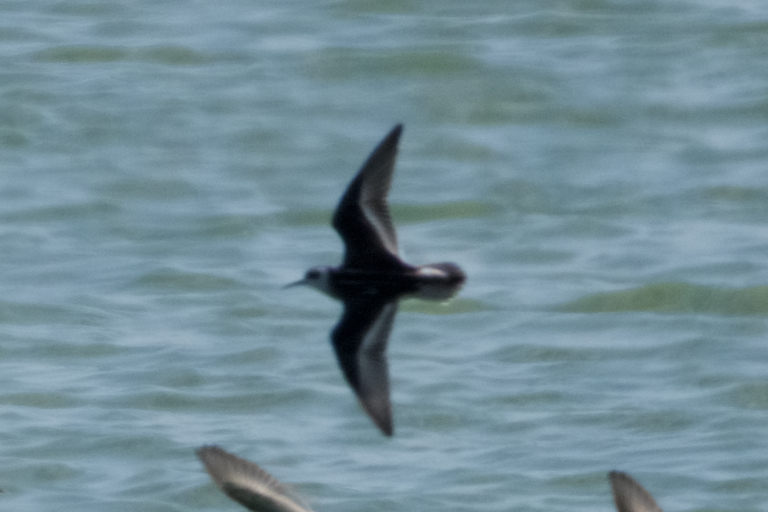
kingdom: Animalia
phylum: Chordata
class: Aves
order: Charadriiformes
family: Scolopacidae
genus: Phalaropus
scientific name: Phalaropus lobatus
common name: Red-necked phalarope
